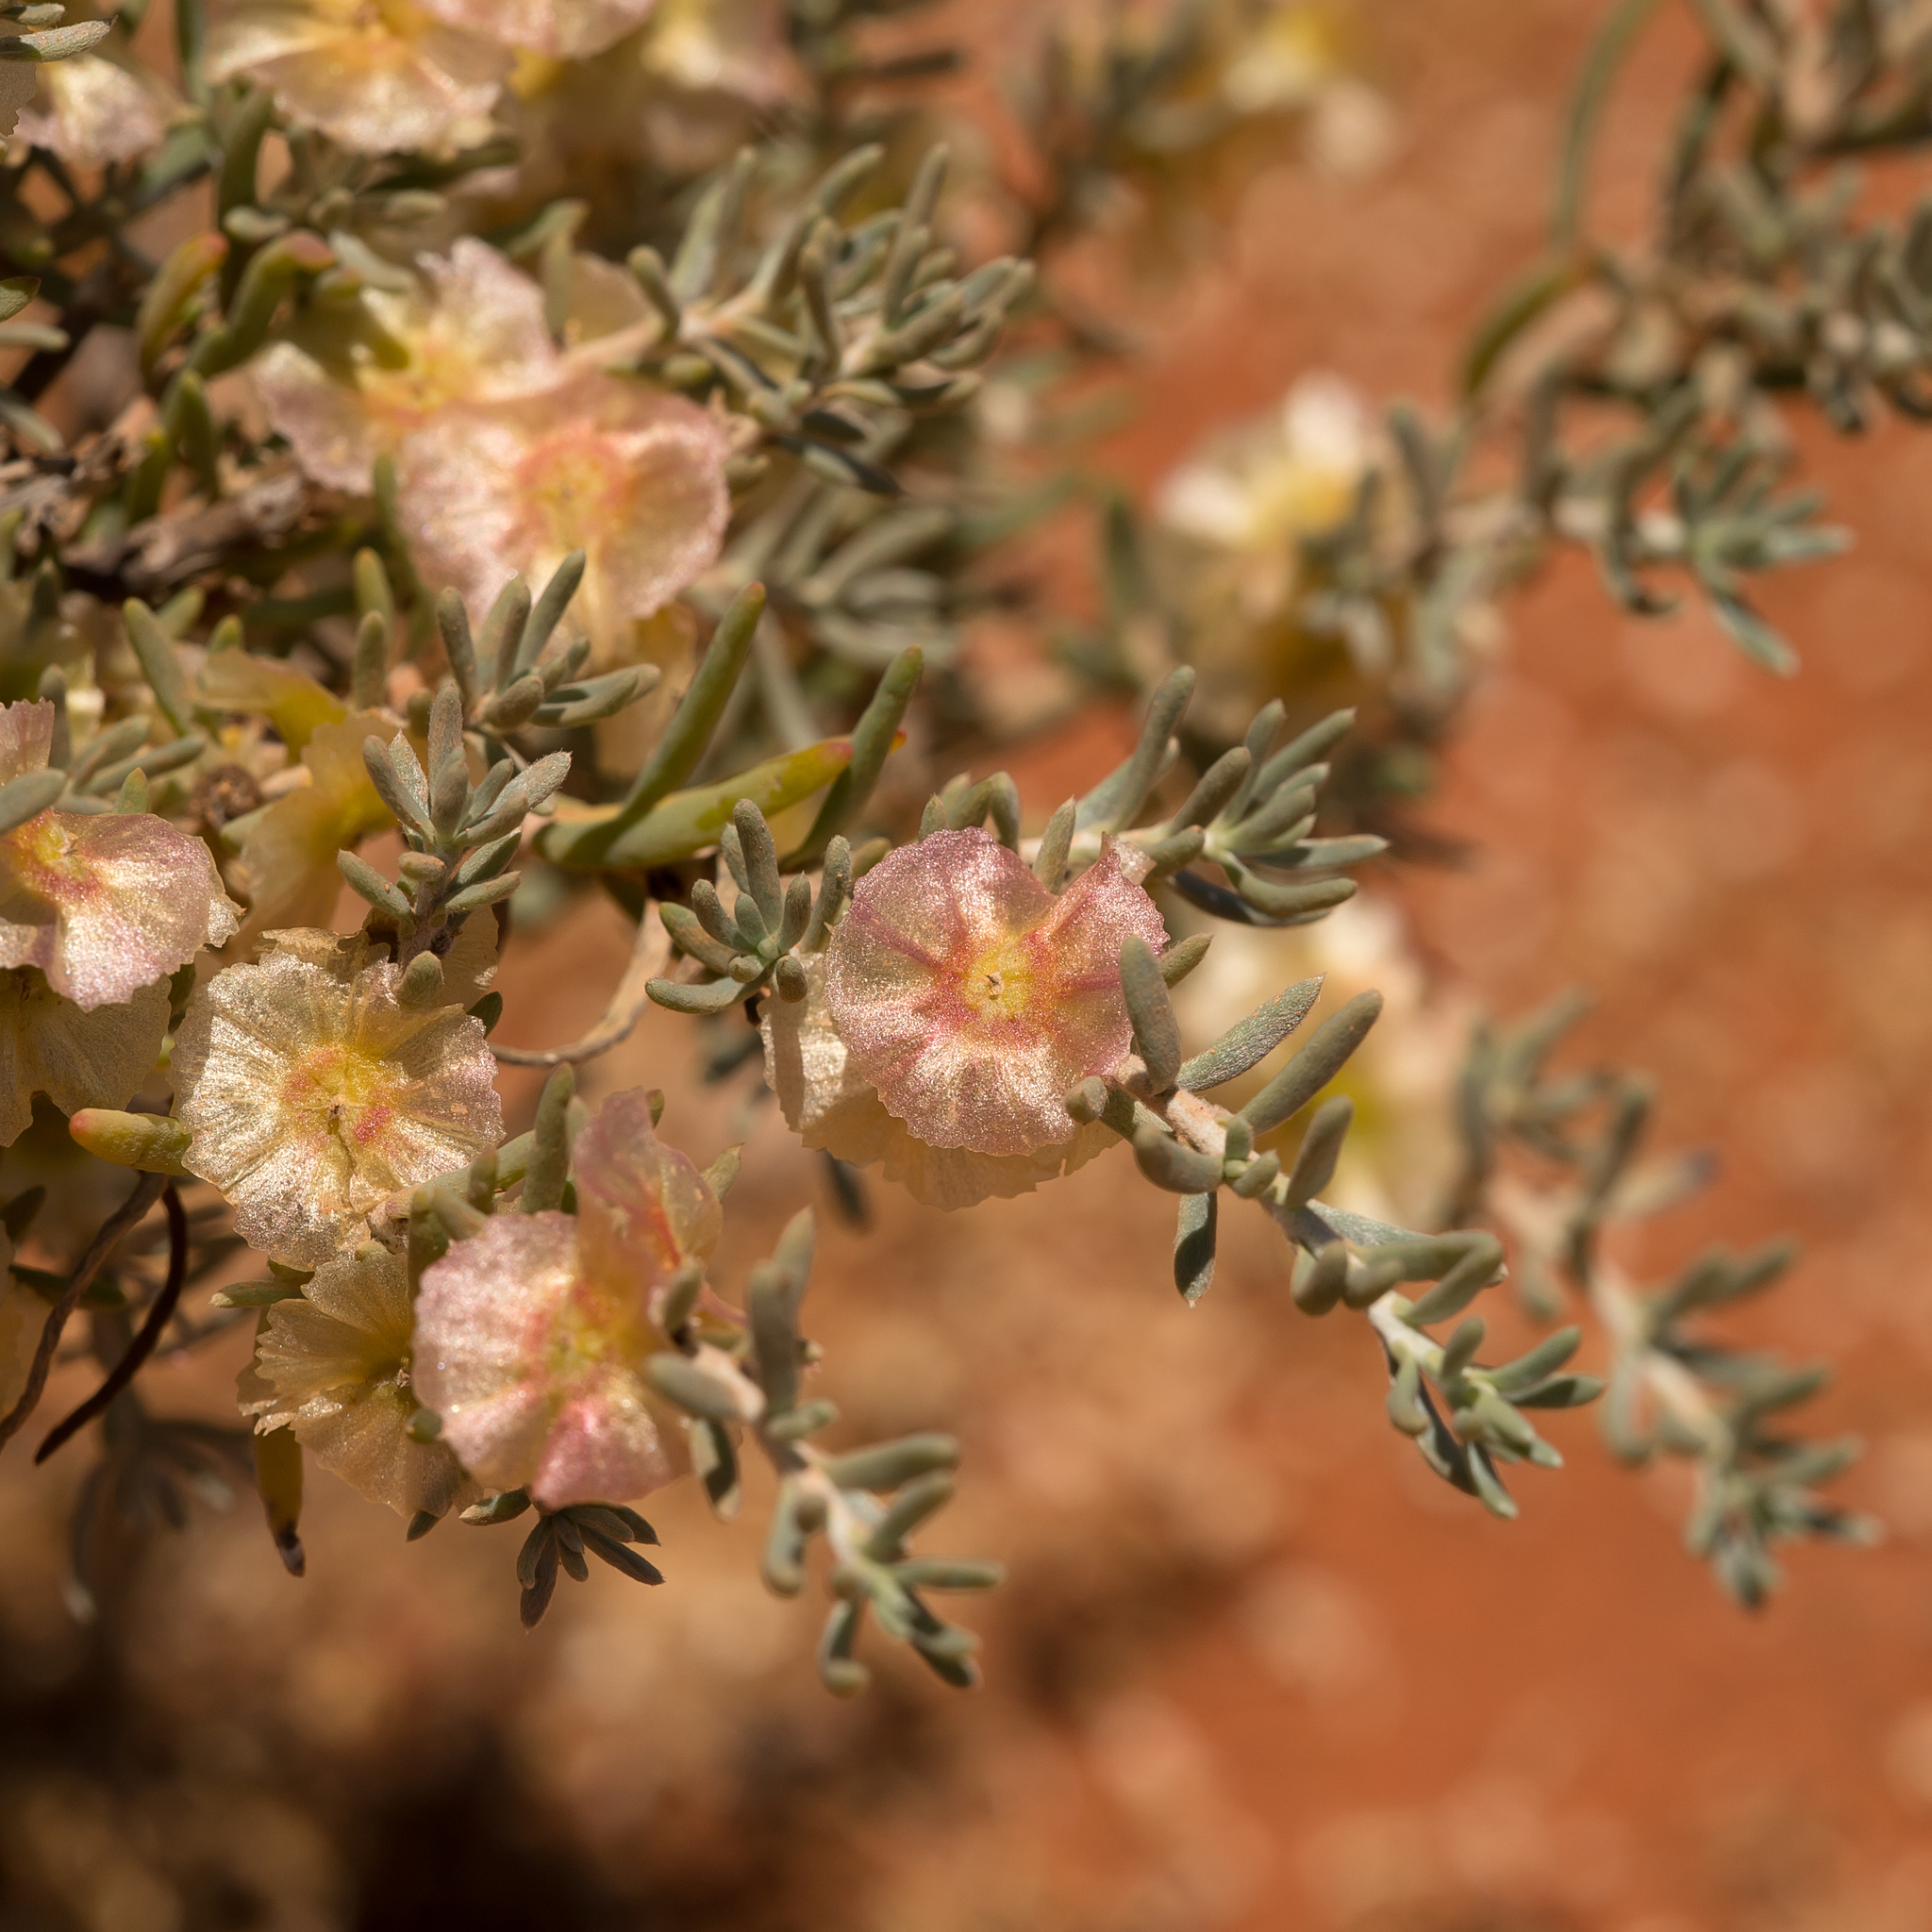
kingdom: Plantae
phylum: Tracheophyta
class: Magnoliopsida
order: Caryophyllales
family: Amaranthaceae
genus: Maireana
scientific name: Maireana georgei
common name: Satiny bluebush
